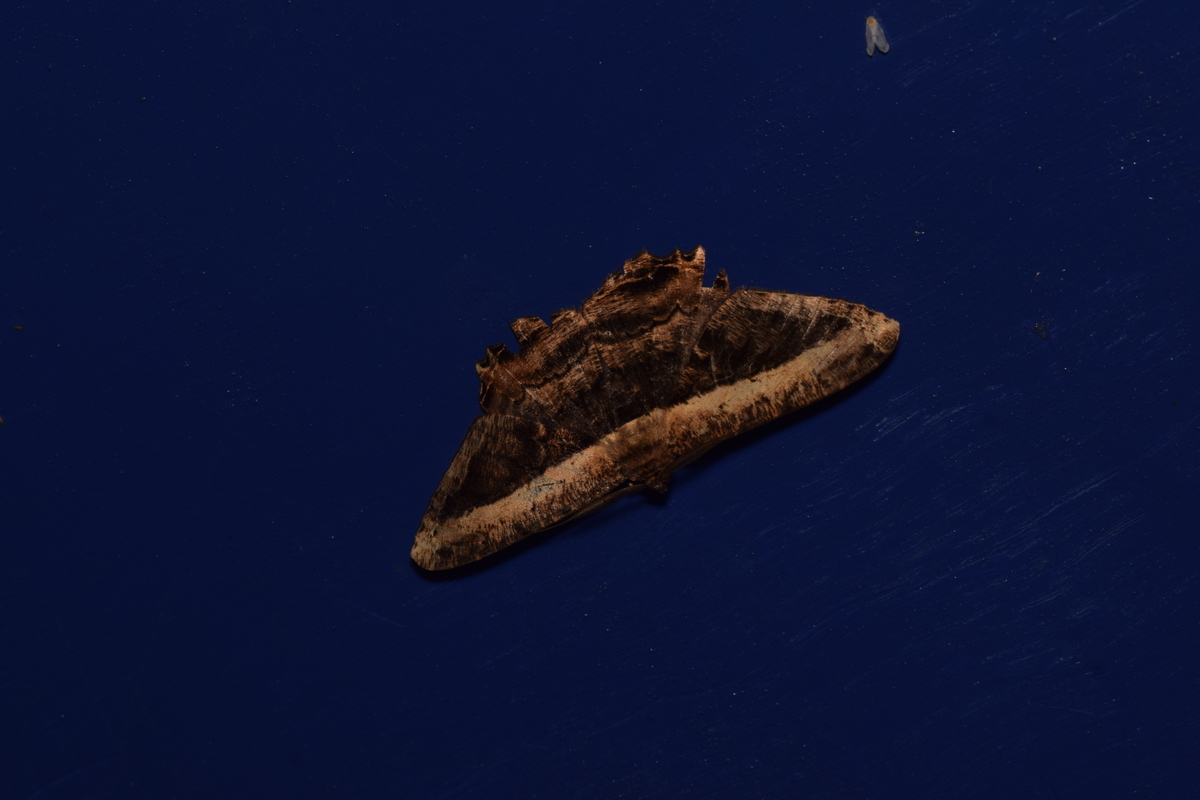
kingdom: Animalia
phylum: Arthropoda
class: Insecta
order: Lepidoptera
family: Geometridae
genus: Chorodna
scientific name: Chorodna similis
